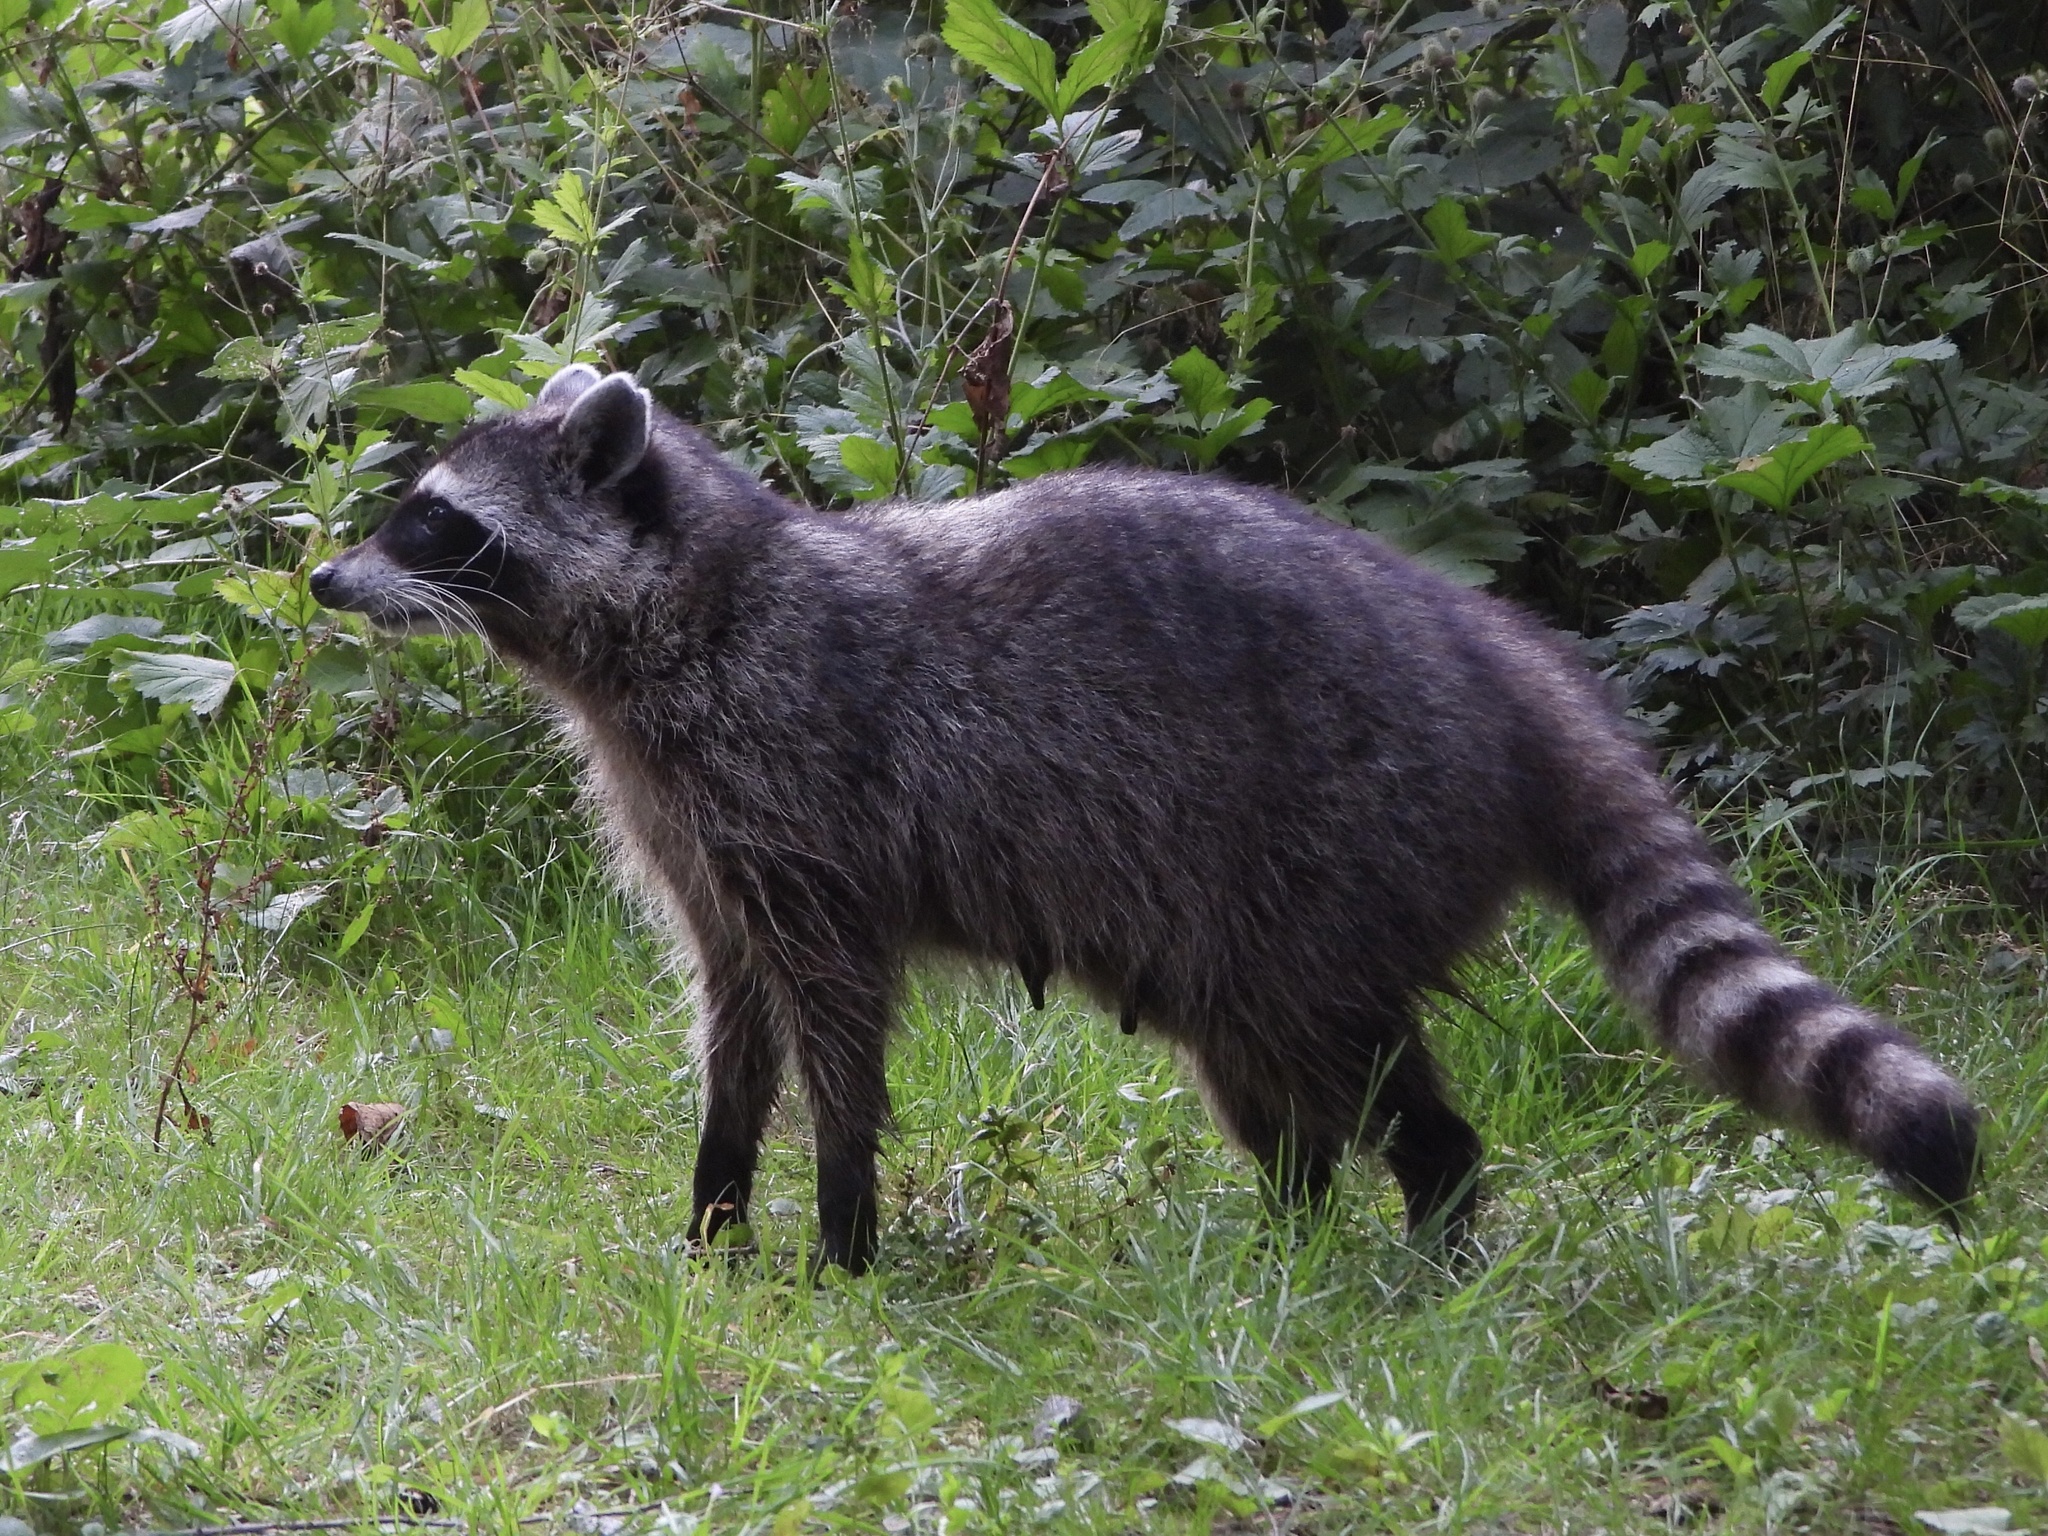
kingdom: Animalia
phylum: Chordata
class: Mammalia
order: Carnivora
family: Procyonidae
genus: Procyon
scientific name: Procyon lotor
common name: Raccoon
